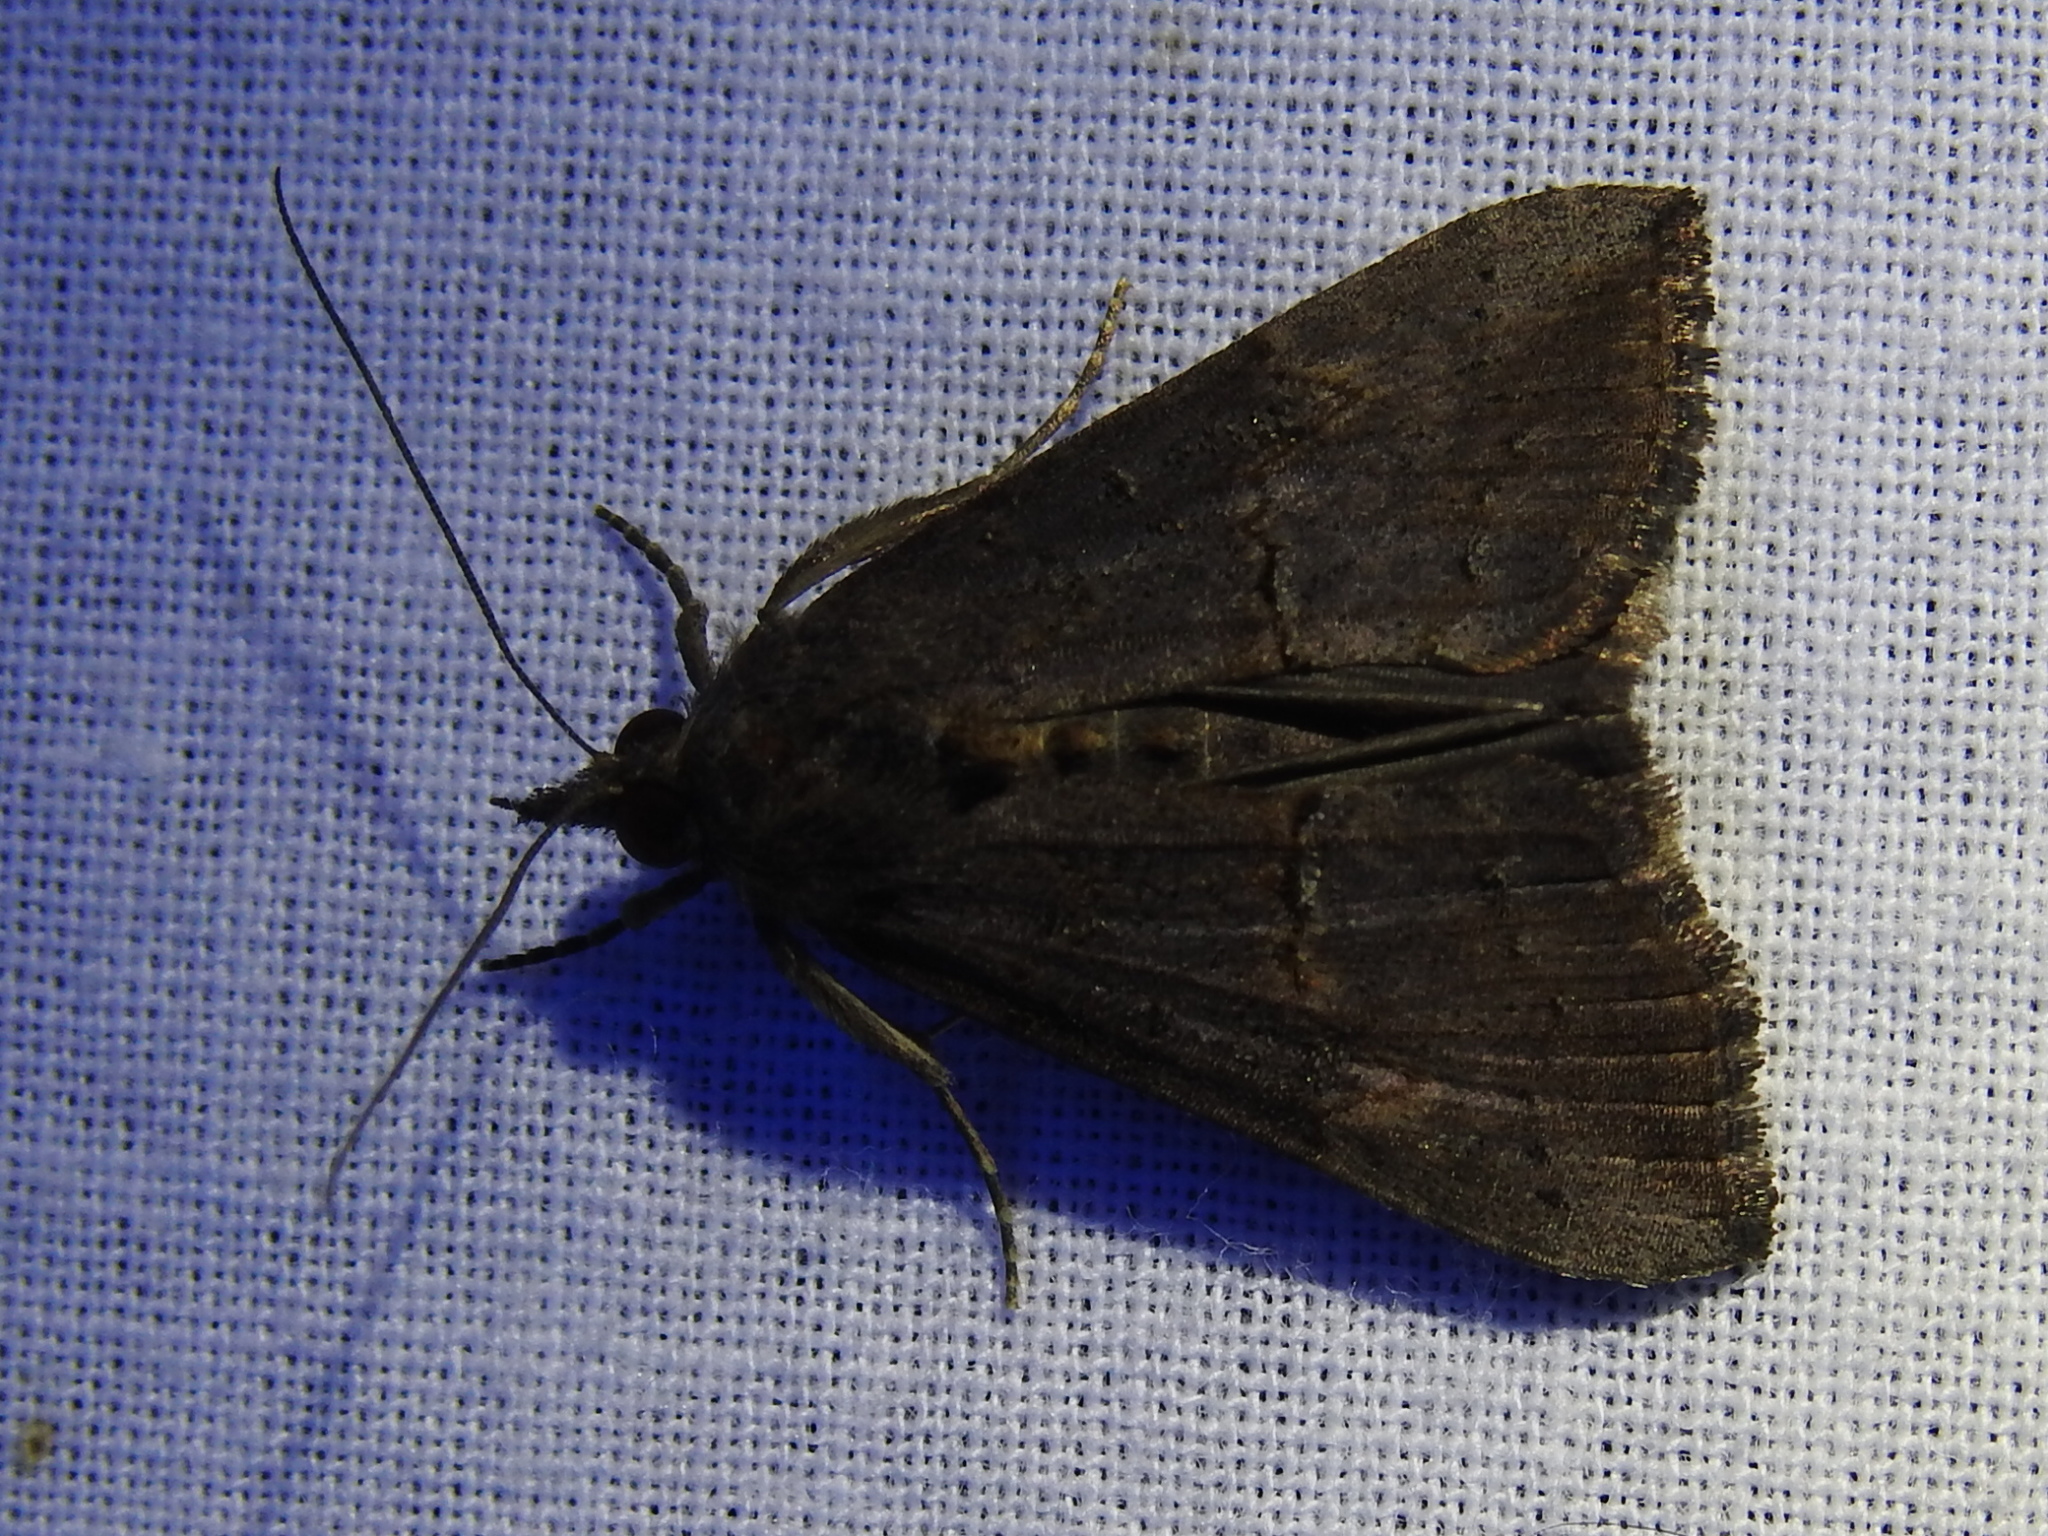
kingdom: Animalia
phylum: Arthropoda
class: Insecta
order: Lepidoptera
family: Erebidae
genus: Hypena
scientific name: Hypena scabra
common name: Green cloverworm
